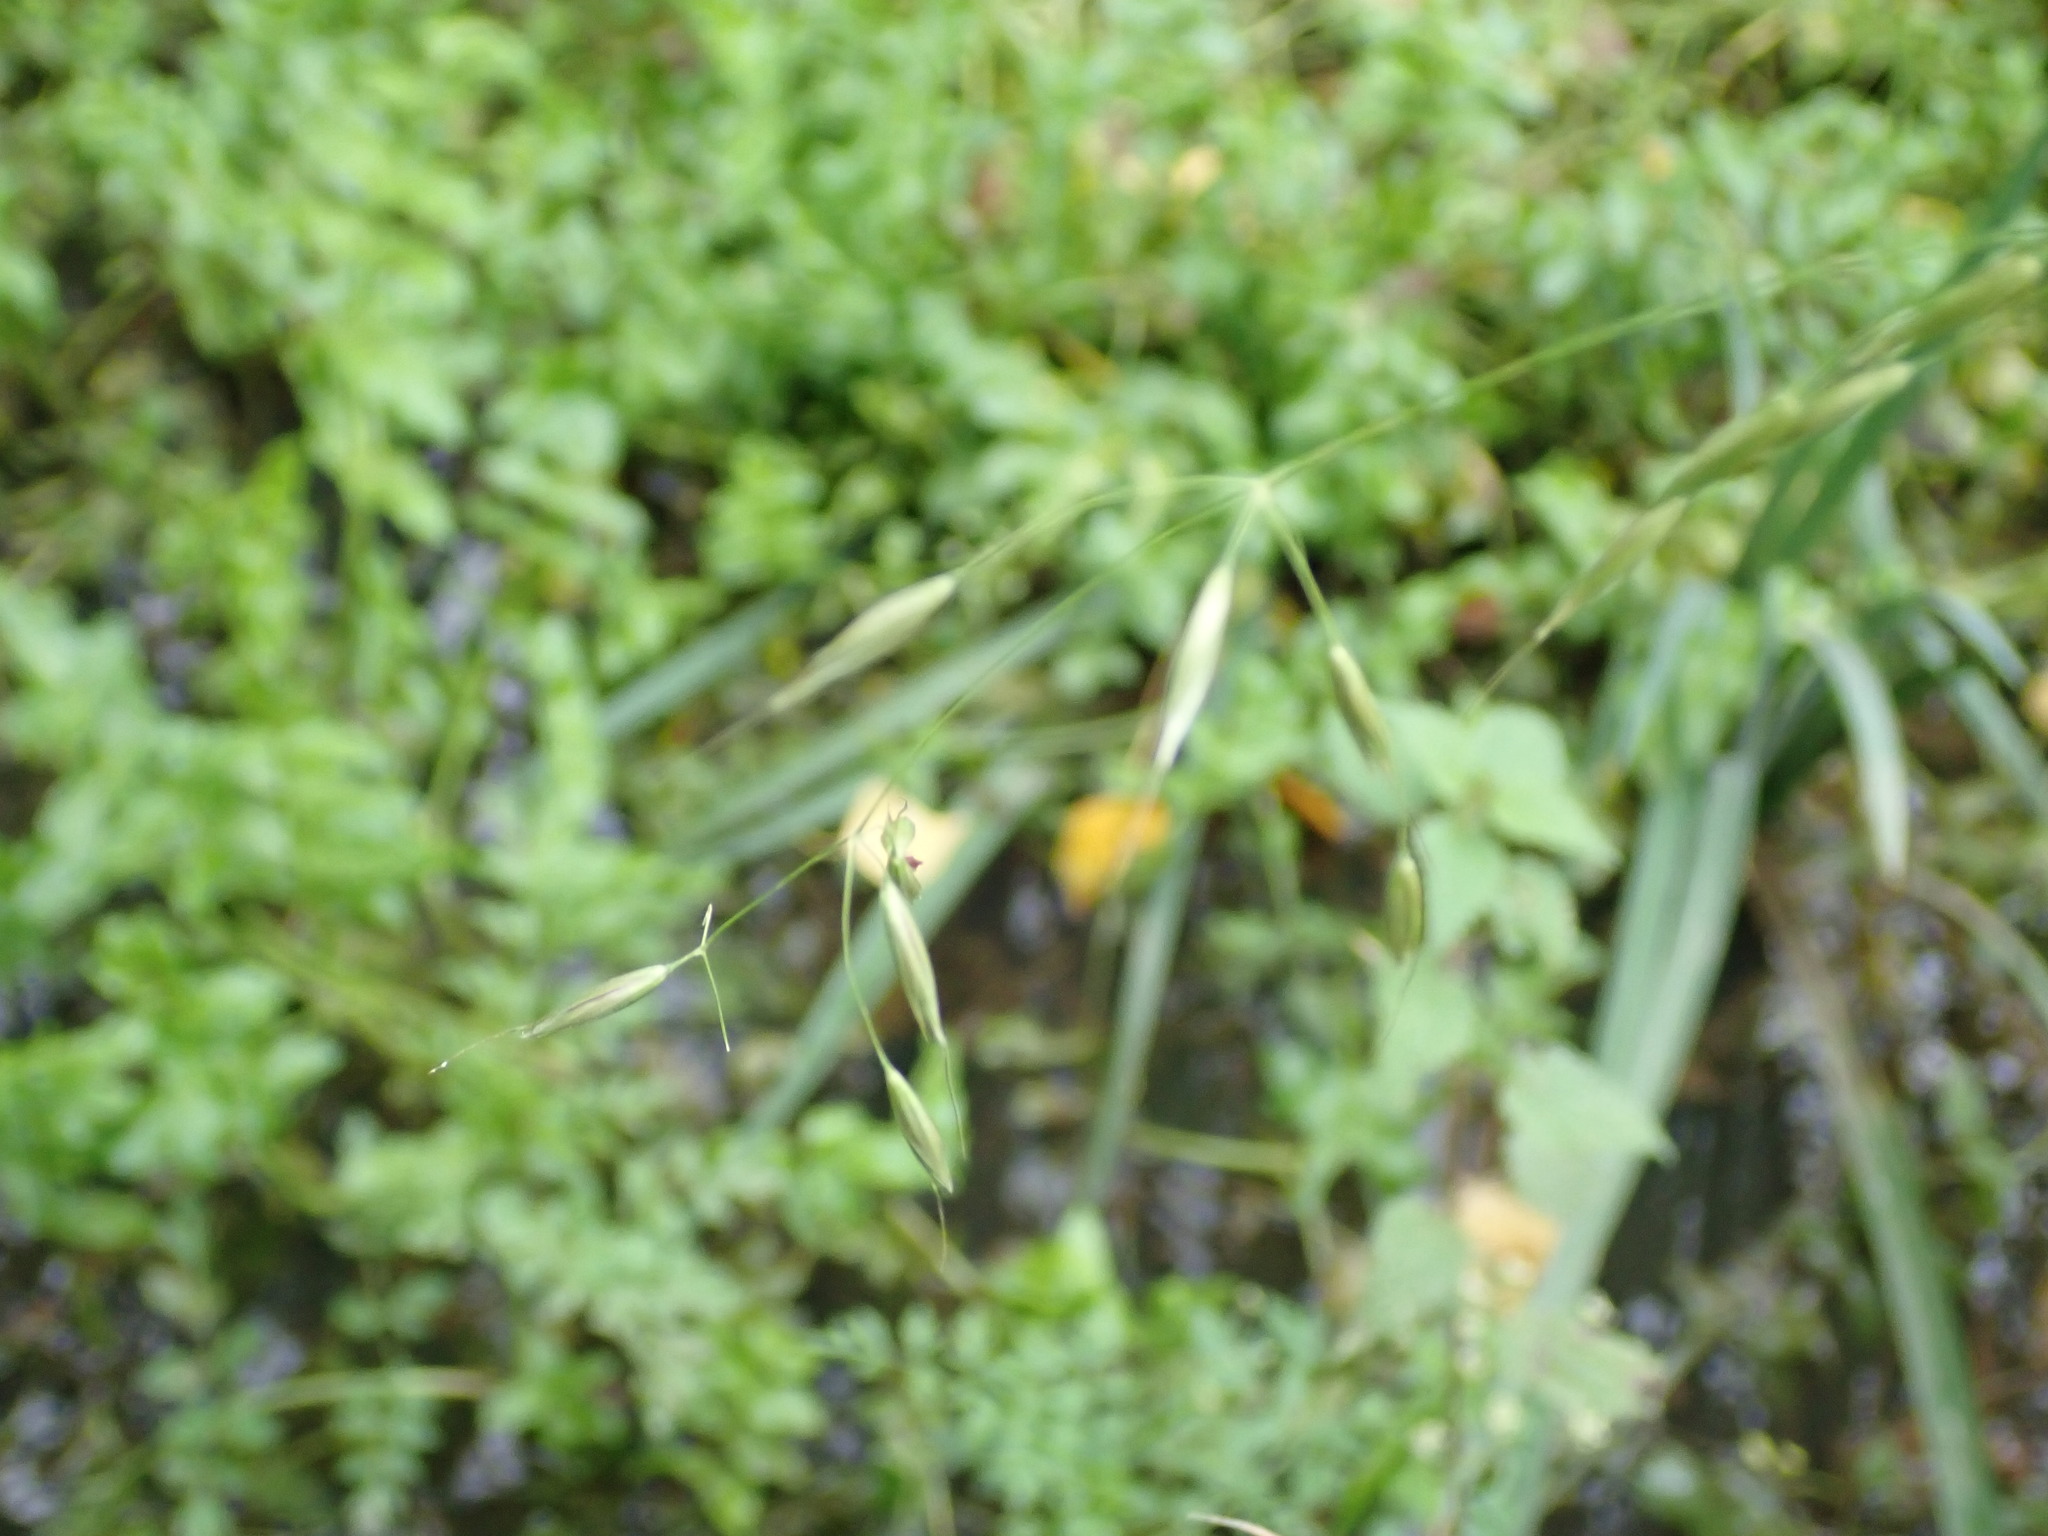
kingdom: Plantae
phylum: Tracheophyta
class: Liliopsida
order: Poales
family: Poaceae
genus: Arrhenatherum
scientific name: Arrhenatherum elatius
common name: Tall oatgrass
